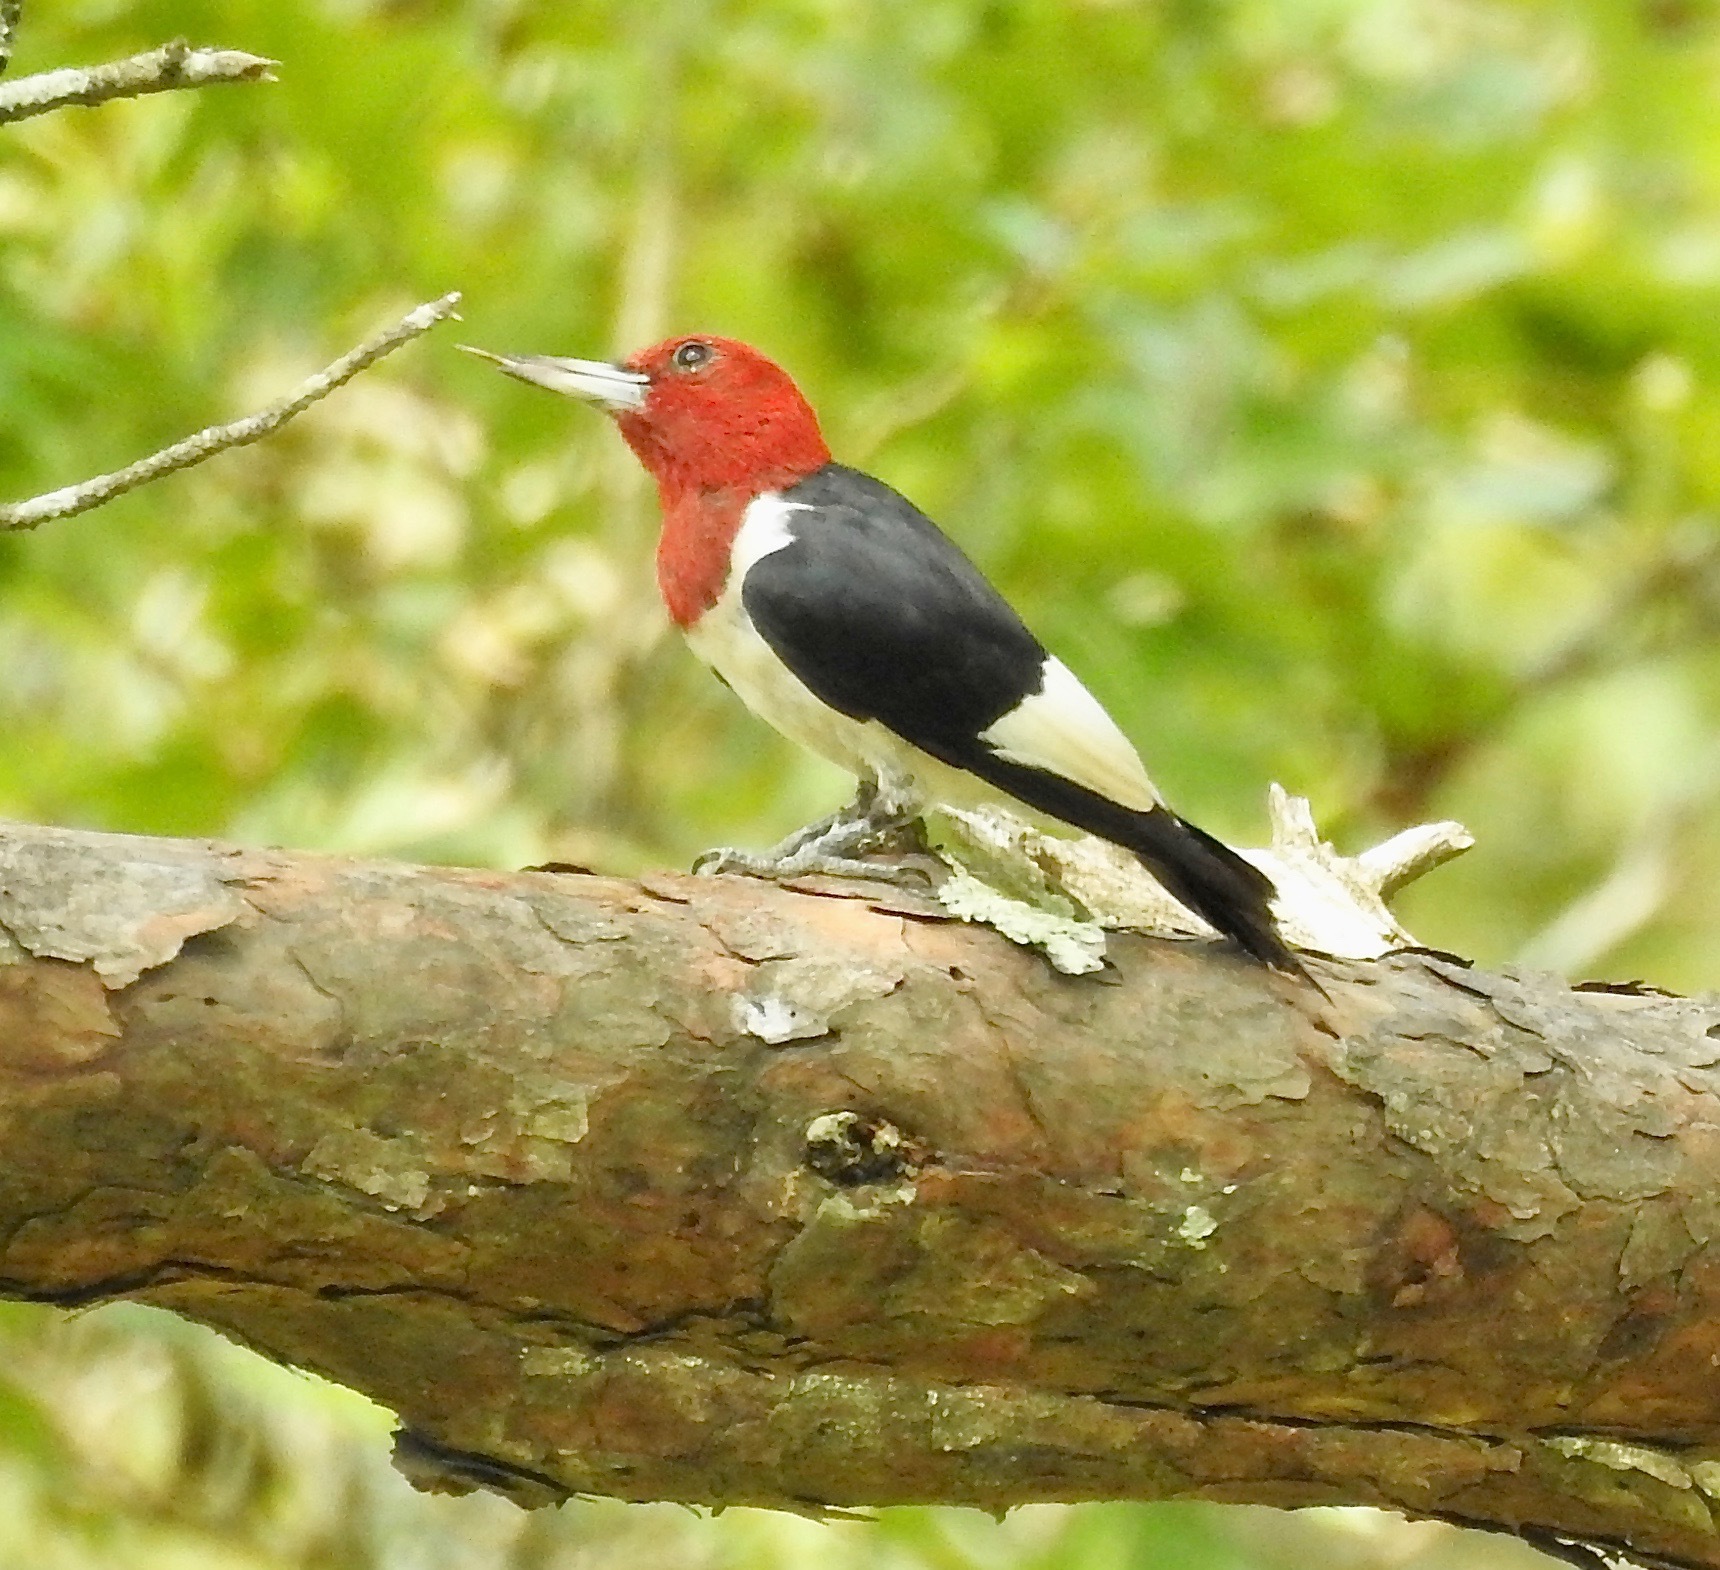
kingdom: Animalia
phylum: Chordata
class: Aves
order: Piciformes
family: Picidae
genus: Melanerpes
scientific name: Melanerpes erythrocephalus
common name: Red-headed woodpecker
